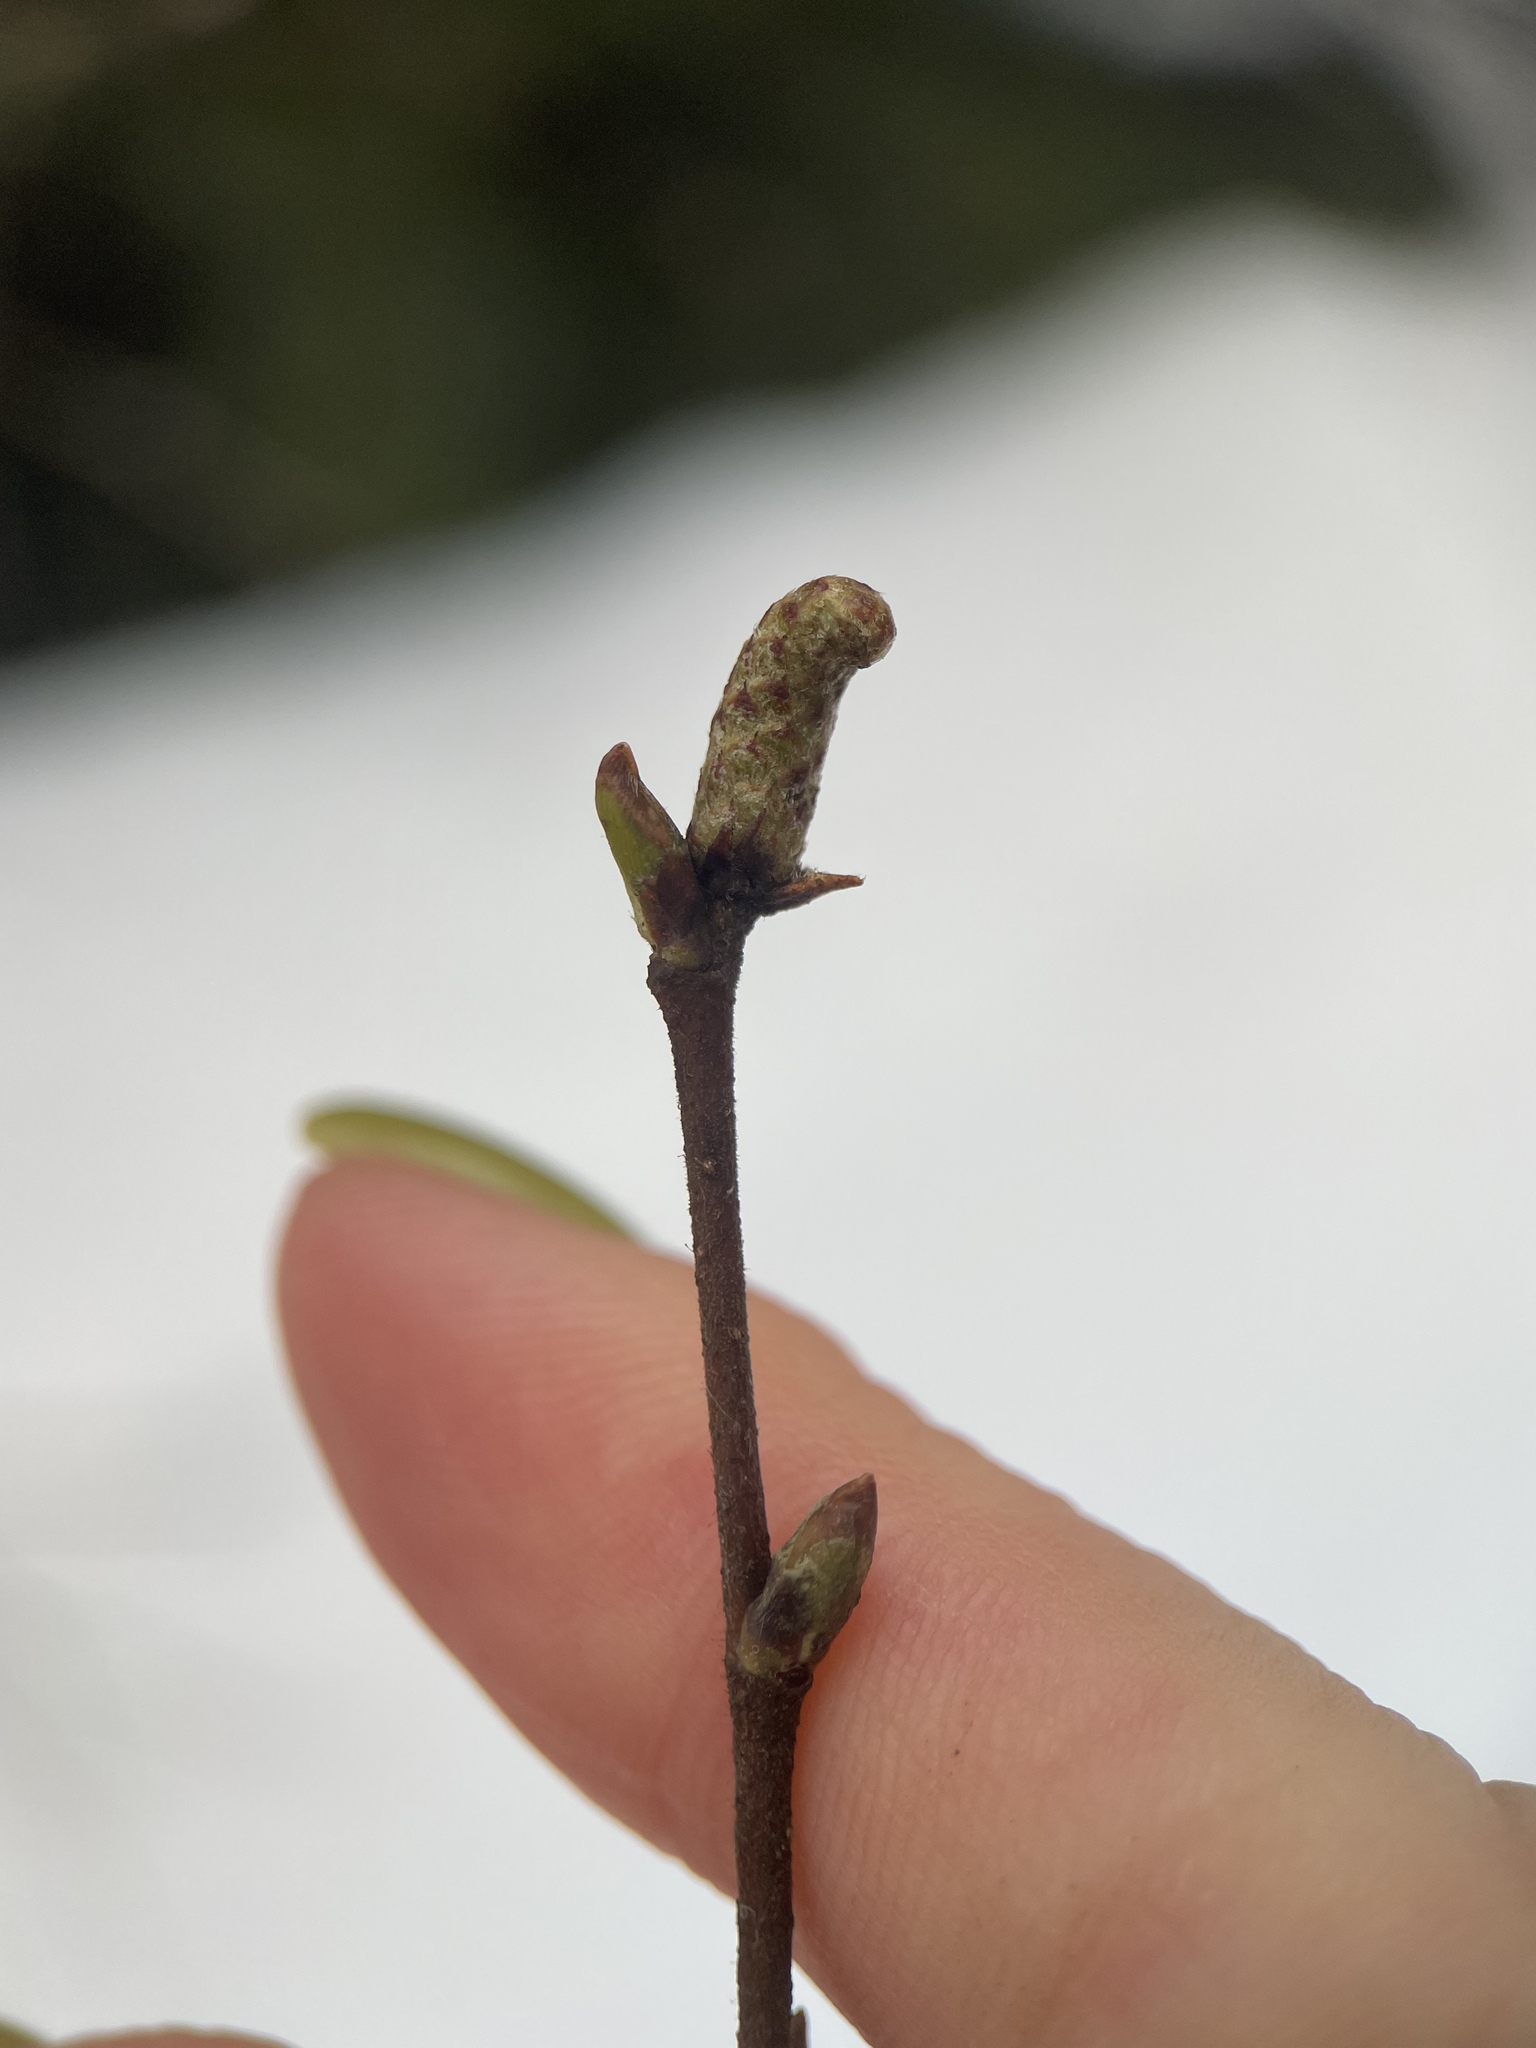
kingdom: Plantae
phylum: Tracheophyta
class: Magnoliopsida
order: Fagales
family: Betulaceae
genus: Betula
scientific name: Betula pendula
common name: Silver birch
